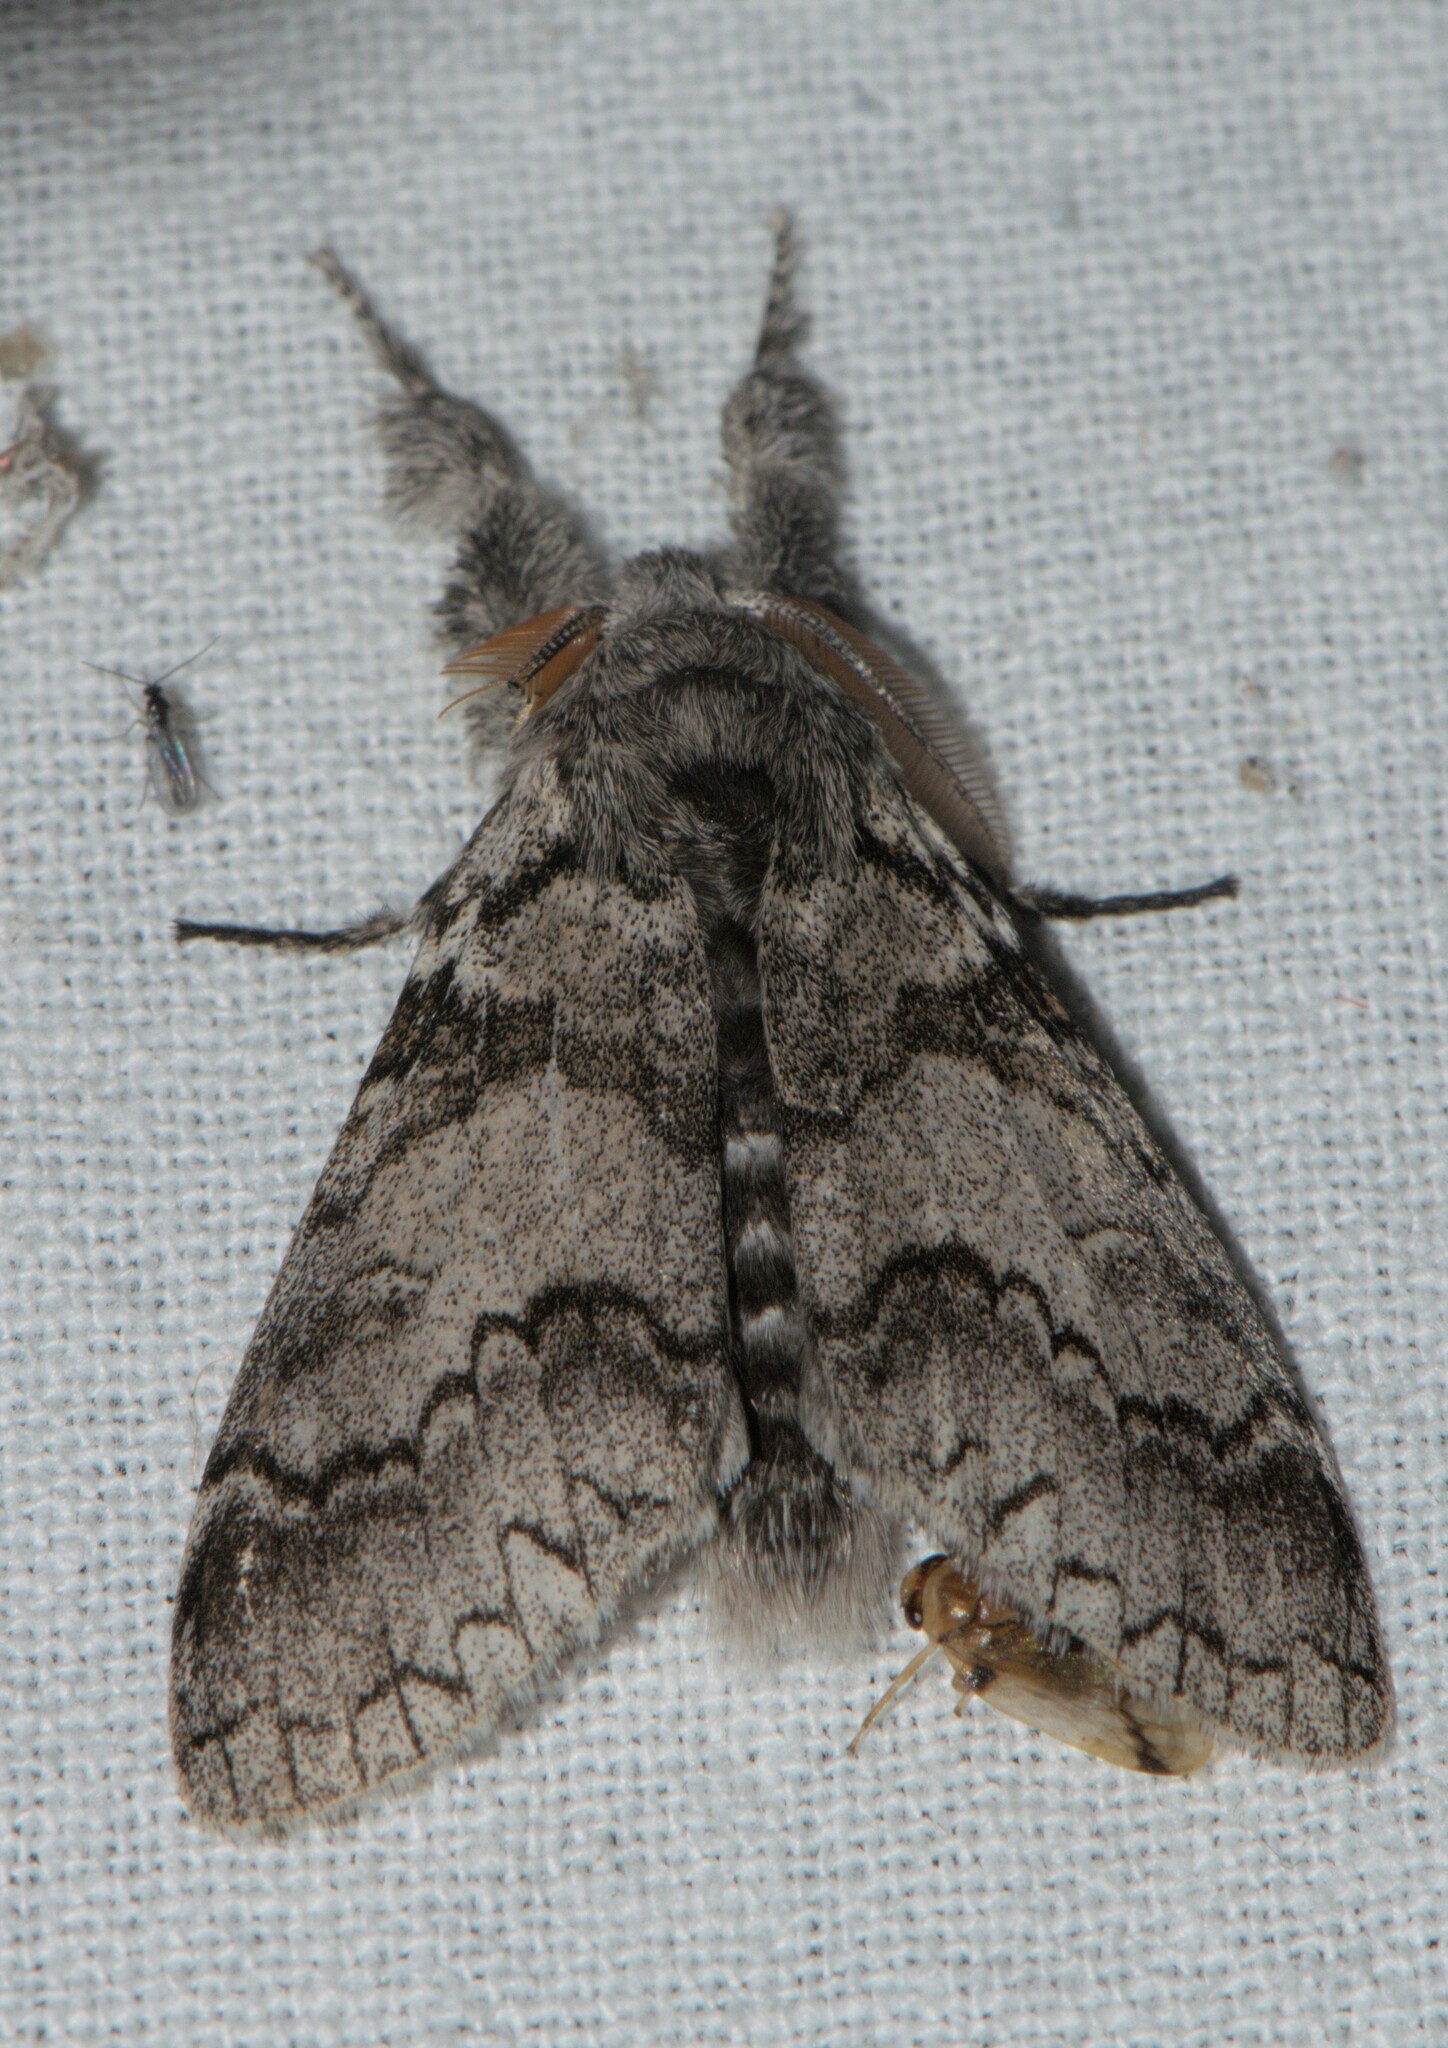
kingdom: Animalia
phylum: Arthropoda
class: Insecta
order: Lepidoptera
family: Erebidae
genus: Calliteara
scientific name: Calliteara varia
